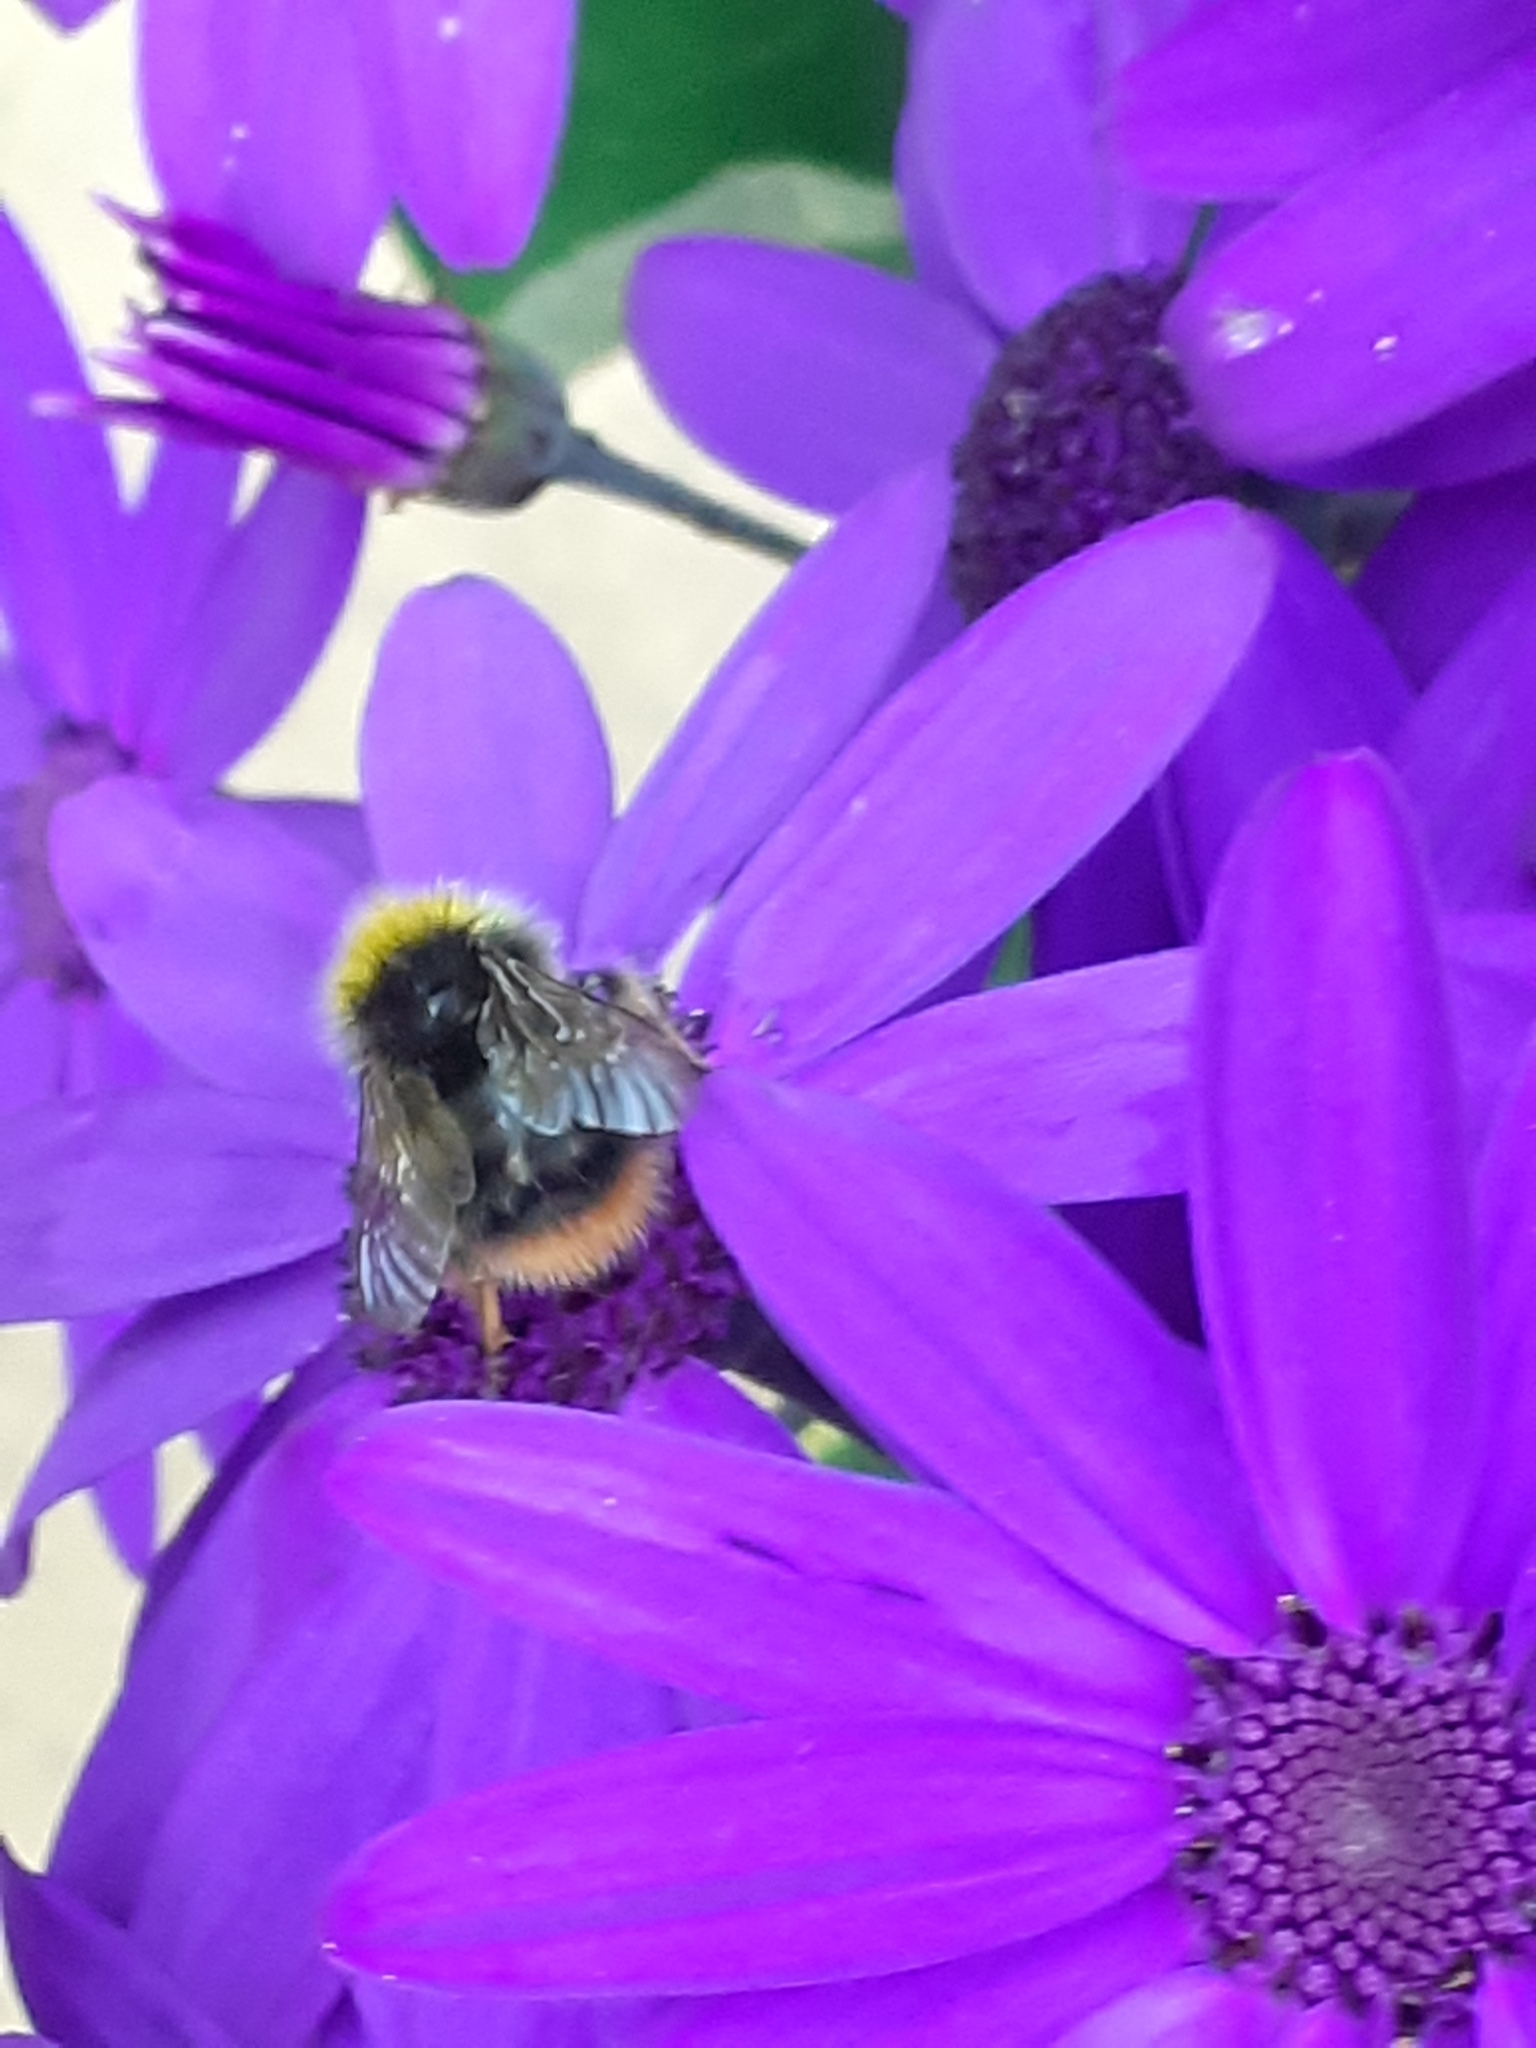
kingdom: Animalia
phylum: Arthropoda
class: Insecta
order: Hymenoptera
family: Apidae
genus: Bombus
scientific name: Bombus pratorum
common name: Early humble-bee
